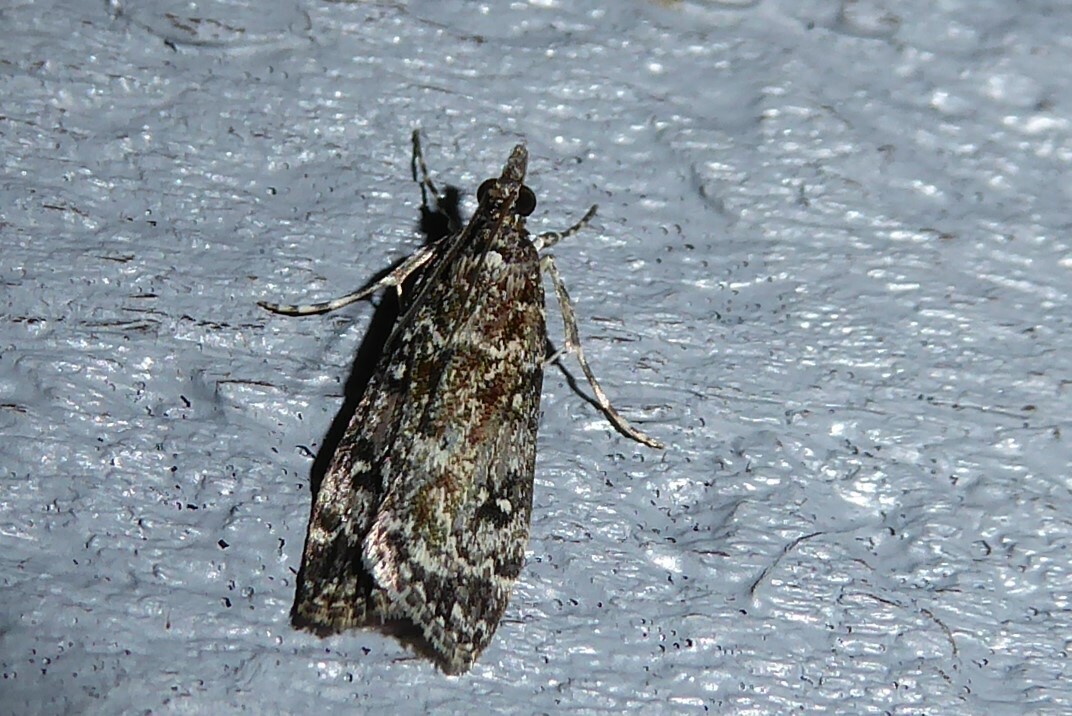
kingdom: Animalia
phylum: Arthropoda
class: Insecta
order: Lepidoptera
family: Crambidae
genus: Eudonia
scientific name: Eudonia philerga
